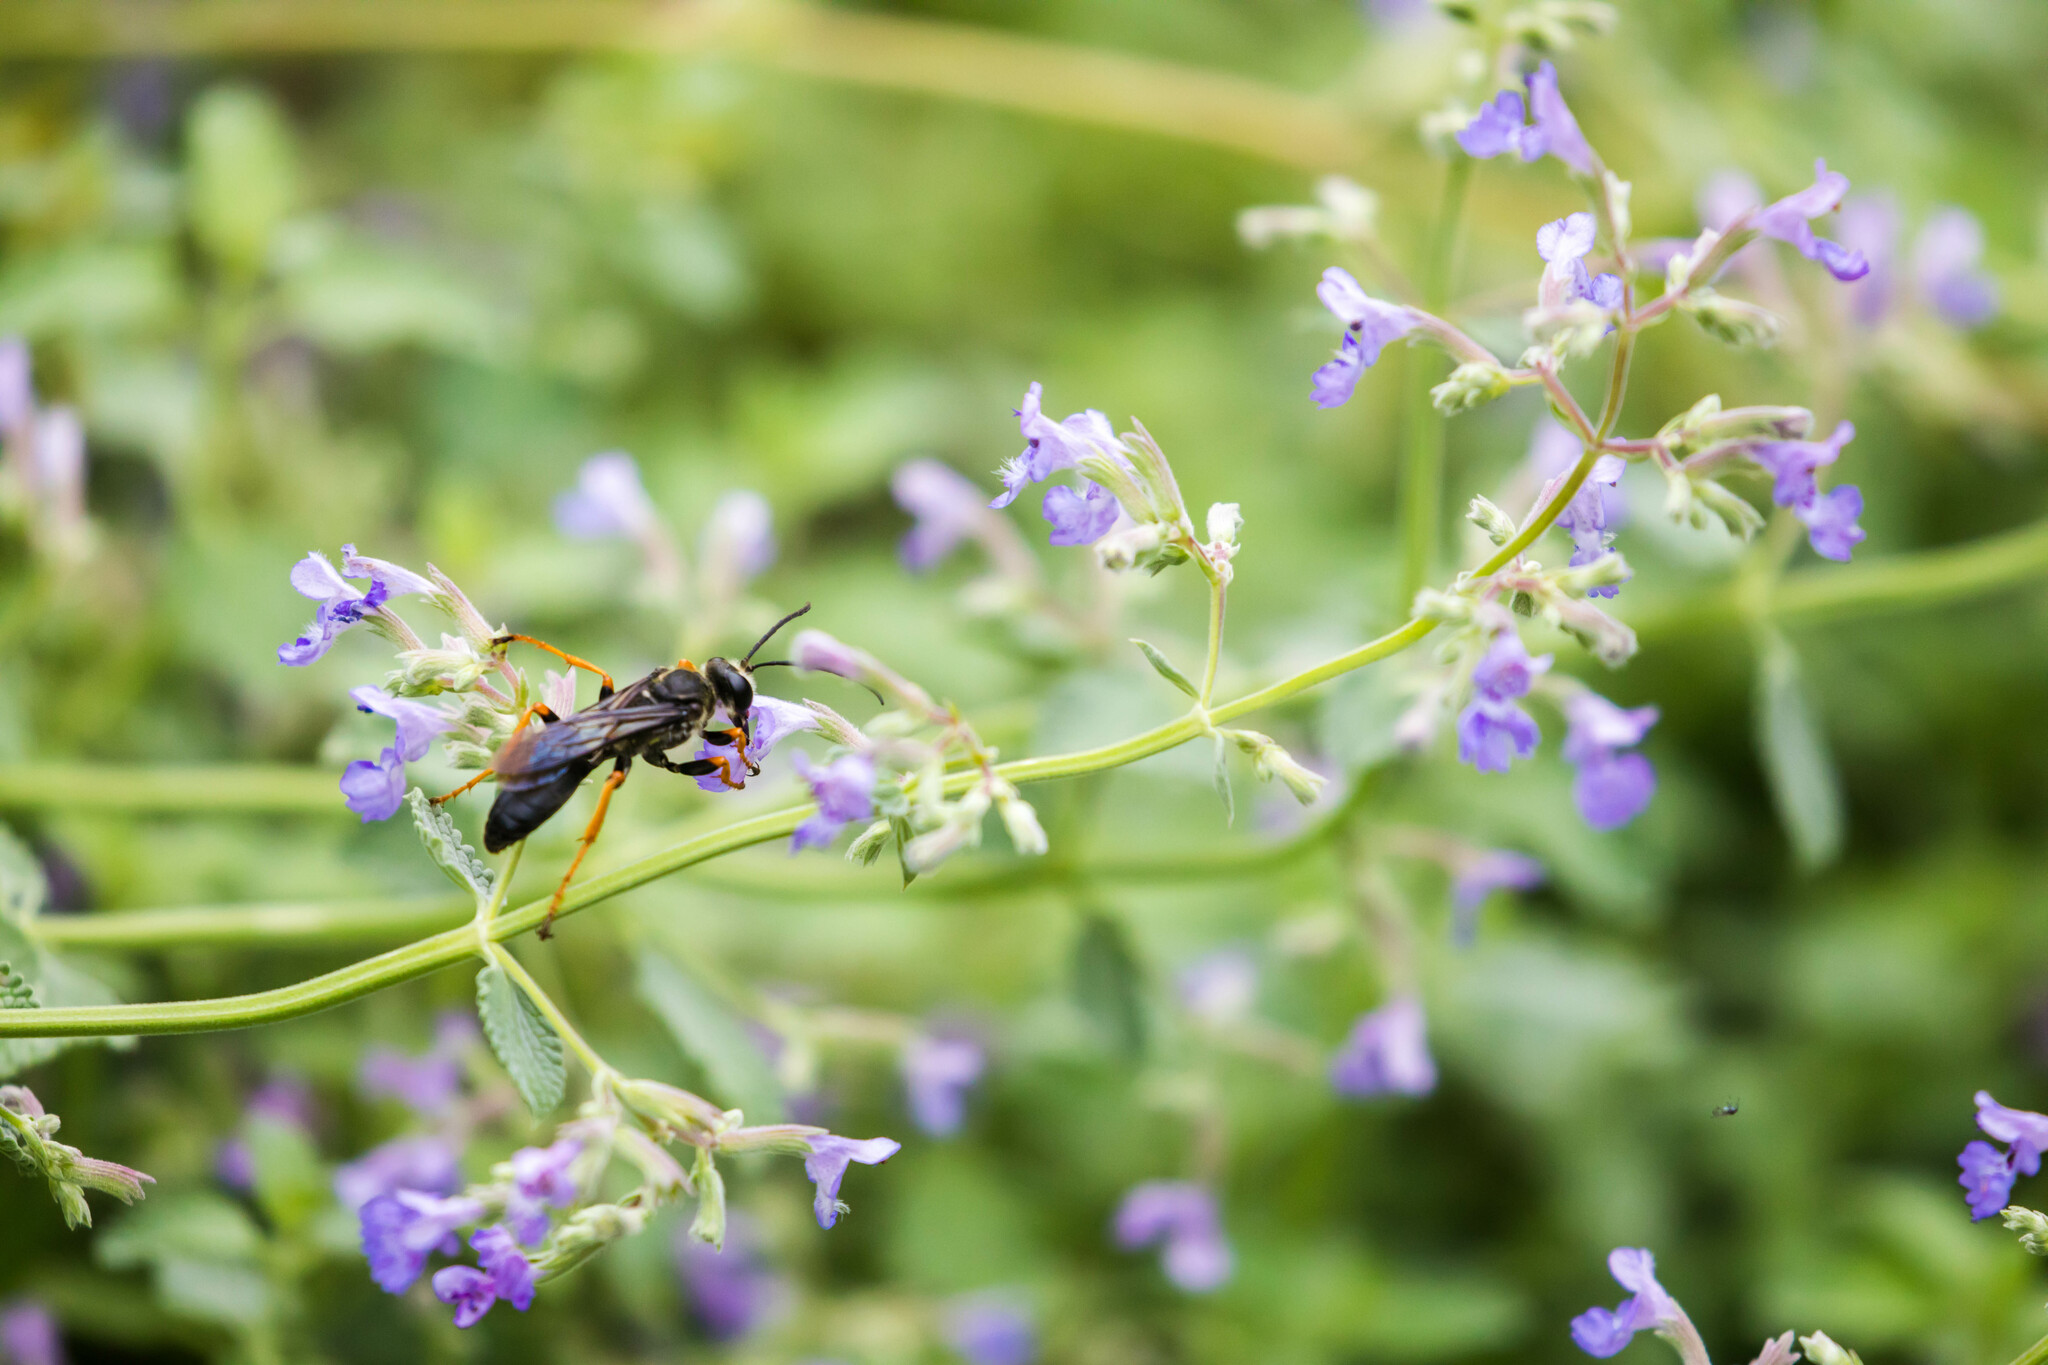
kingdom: Animalia
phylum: Arthropoda
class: Insecta
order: Hymenoptera
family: Sphecidae
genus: Sphex
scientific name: Sphex nudus
